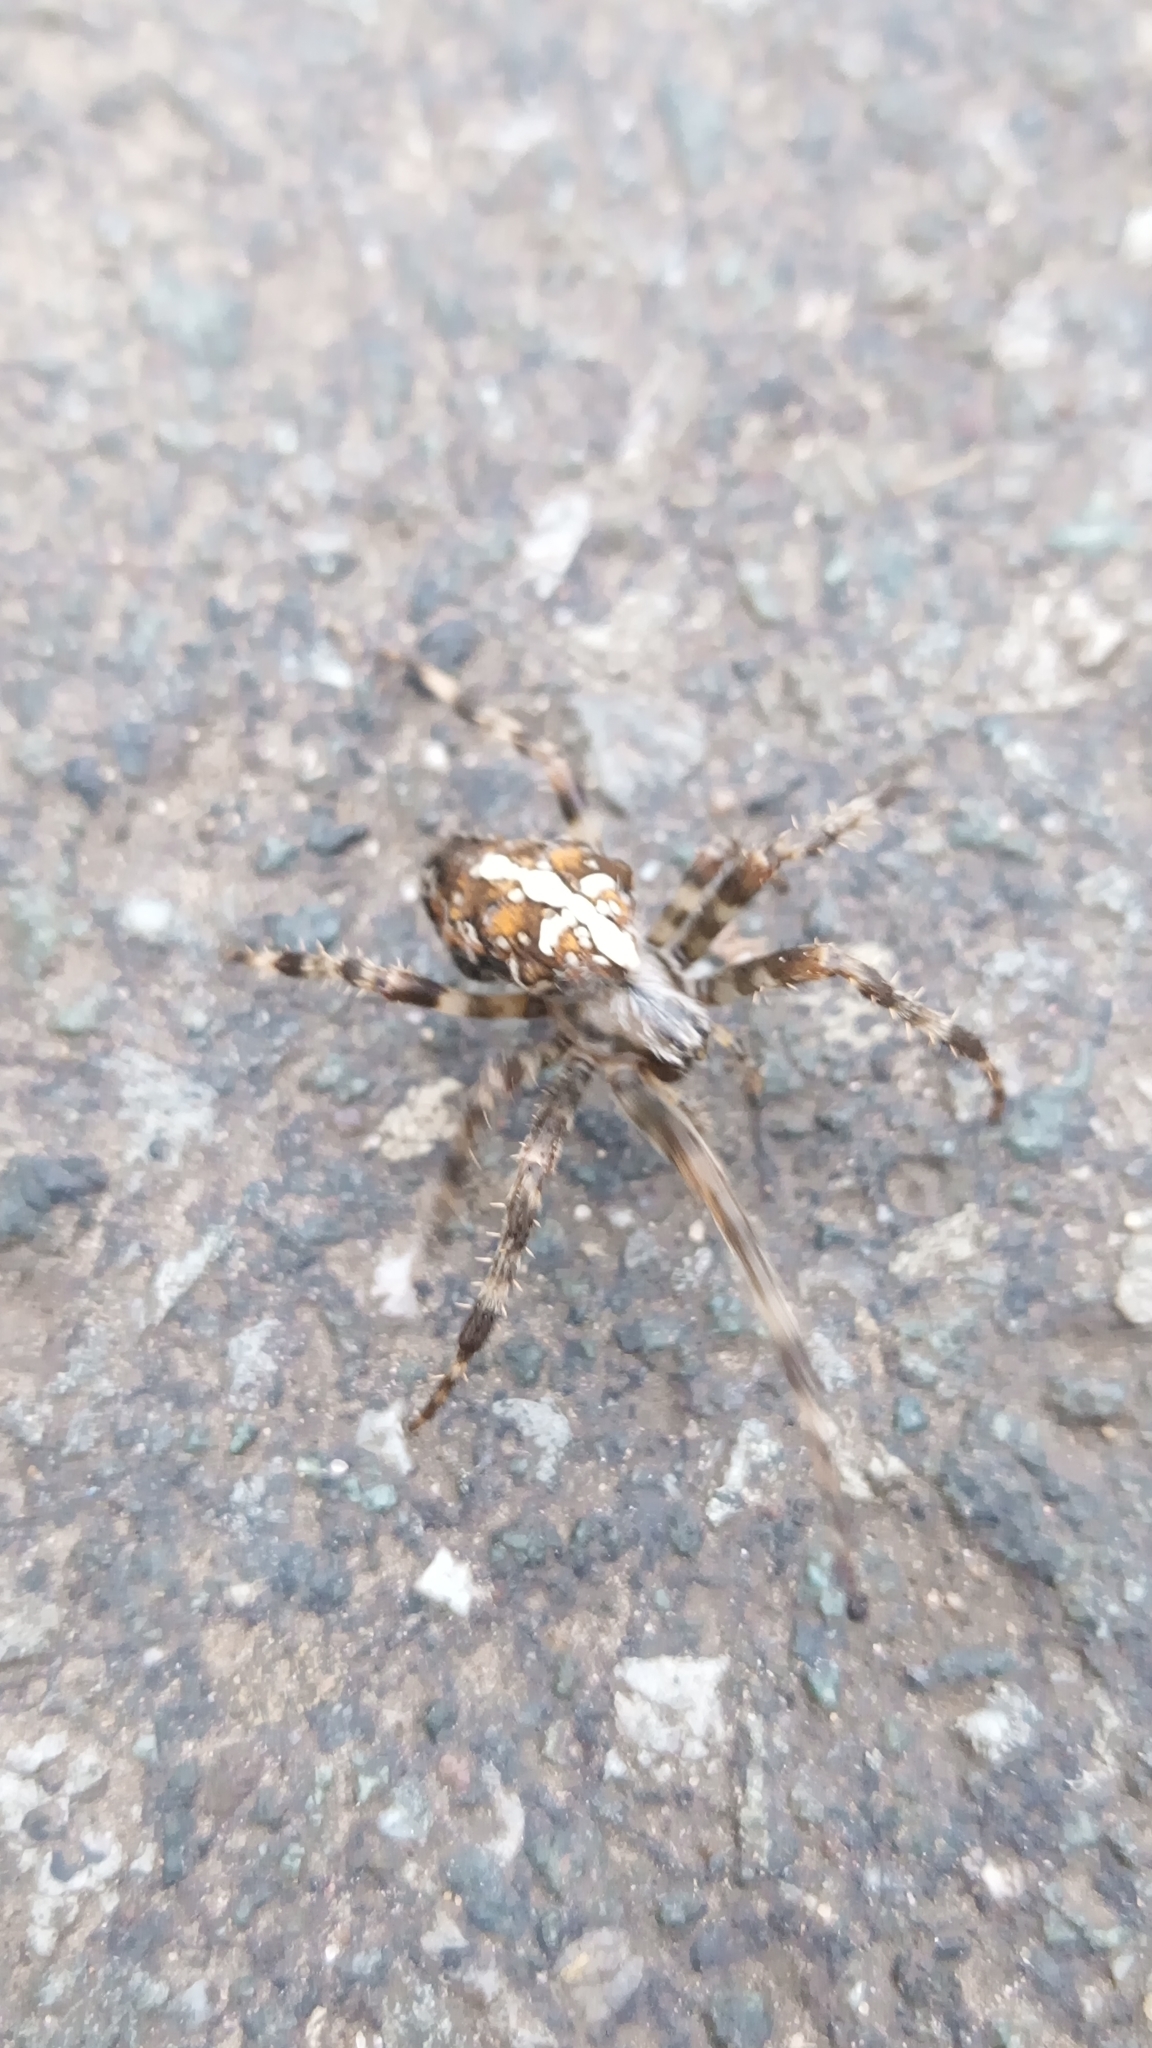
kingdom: Animalia
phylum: Arthropoda
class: Arachnida
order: Araneae
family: Araneidae
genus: Araneus
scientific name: Araneus diadematus
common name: Cross orbweaver
